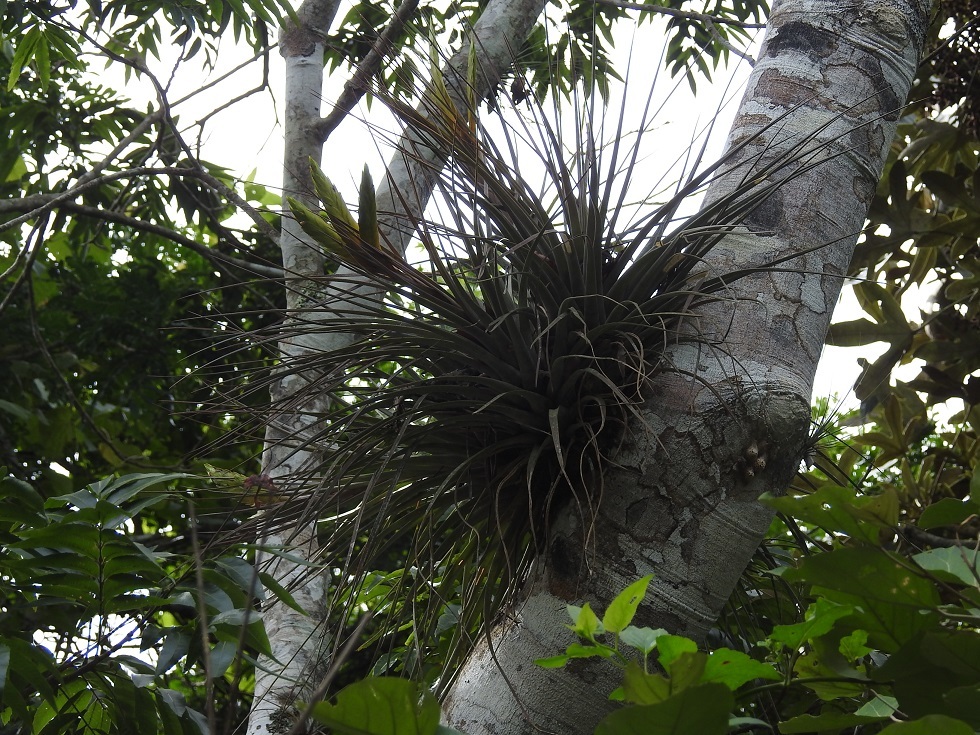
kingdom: Plantae
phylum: Tracheophyta
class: Liliopsida
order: Poales
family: Bromeliaceae
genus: Tillandsia
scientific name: Tillandsia fasciculata
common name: Giant airplant
